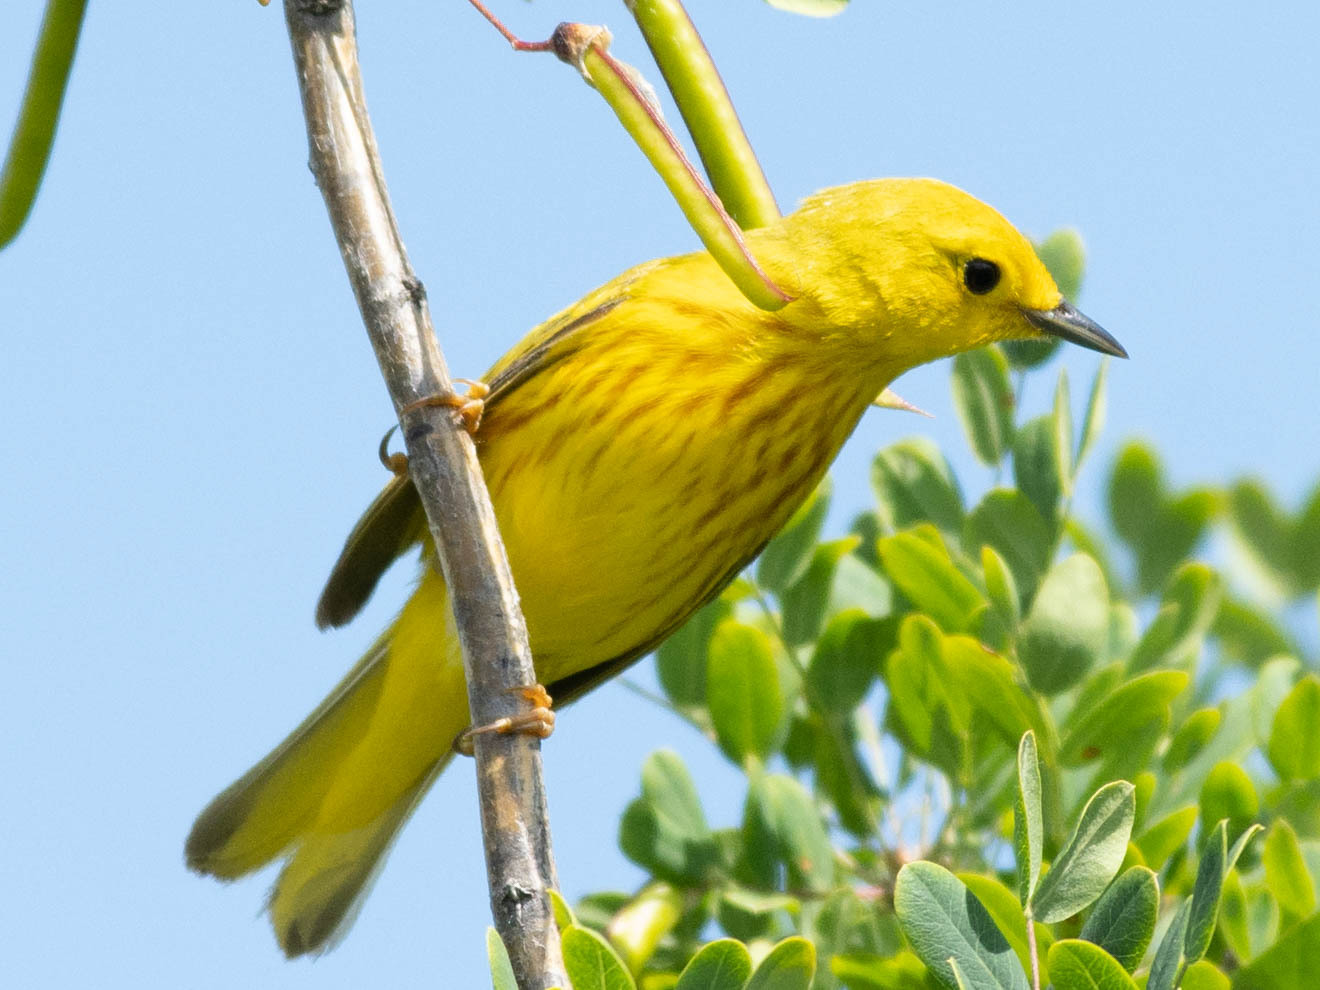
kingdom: Animalia
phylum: Chordata
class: Aves
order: Passeriformes
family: Parulidae
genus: Setophaga
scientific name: Setophaga petechia
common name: Yellow warbler
